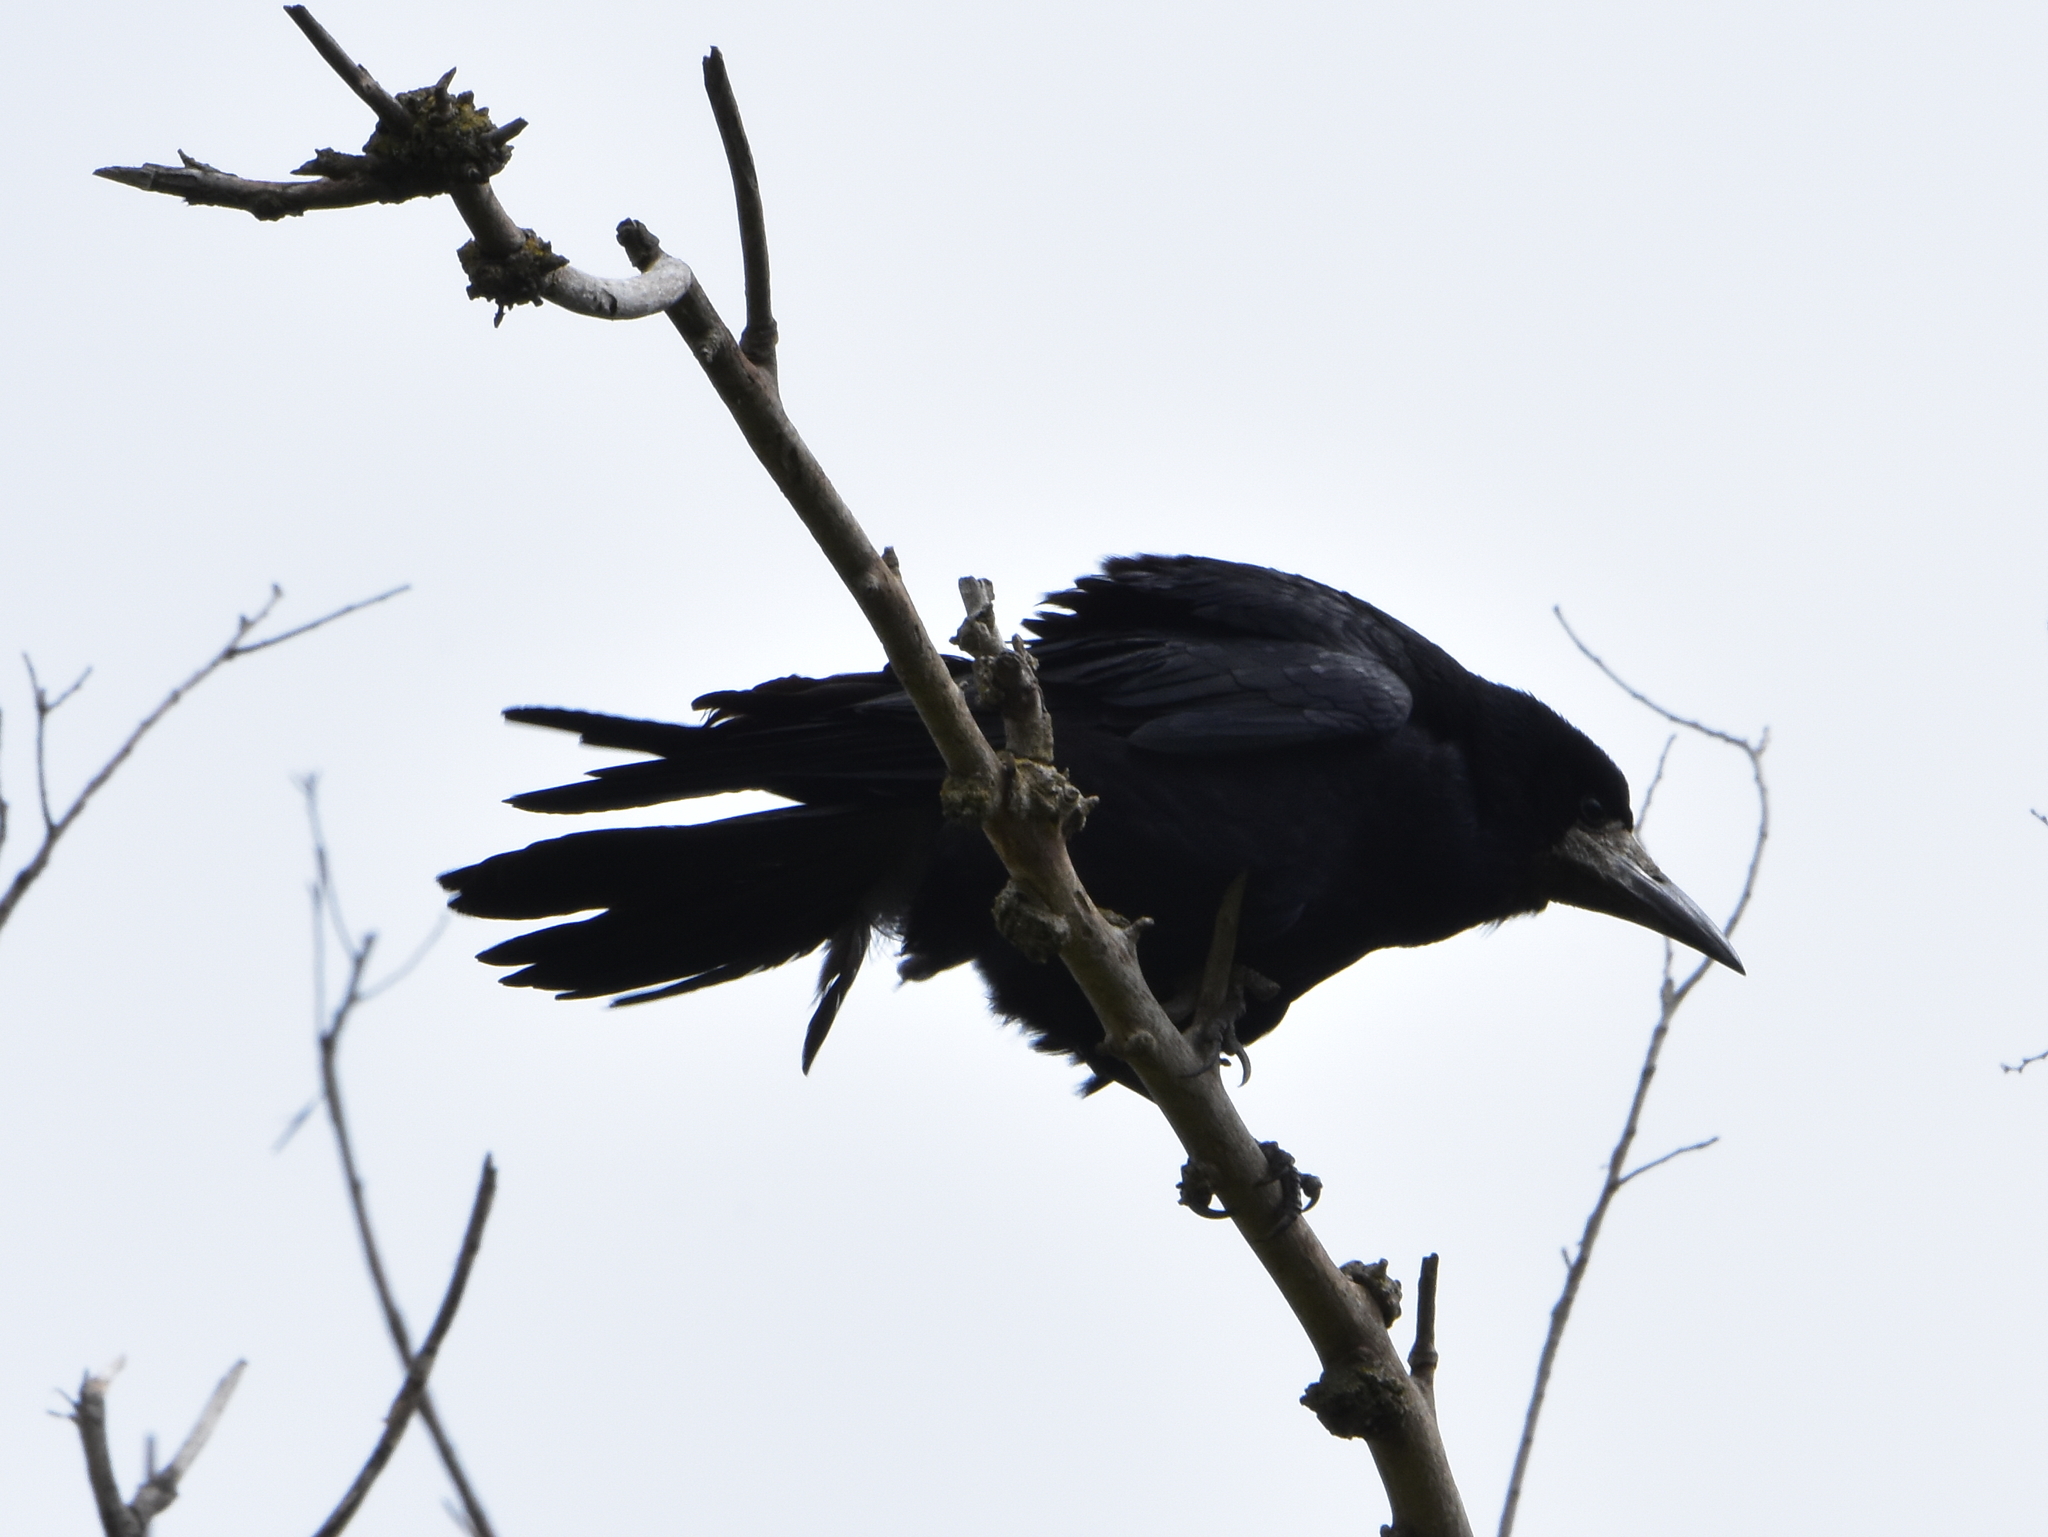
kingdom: Animalia
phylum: Chordata
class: Aves
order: Passeriformes
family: Corvidae
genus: Corvus
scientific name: Corvus frugilegus
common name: Rook
